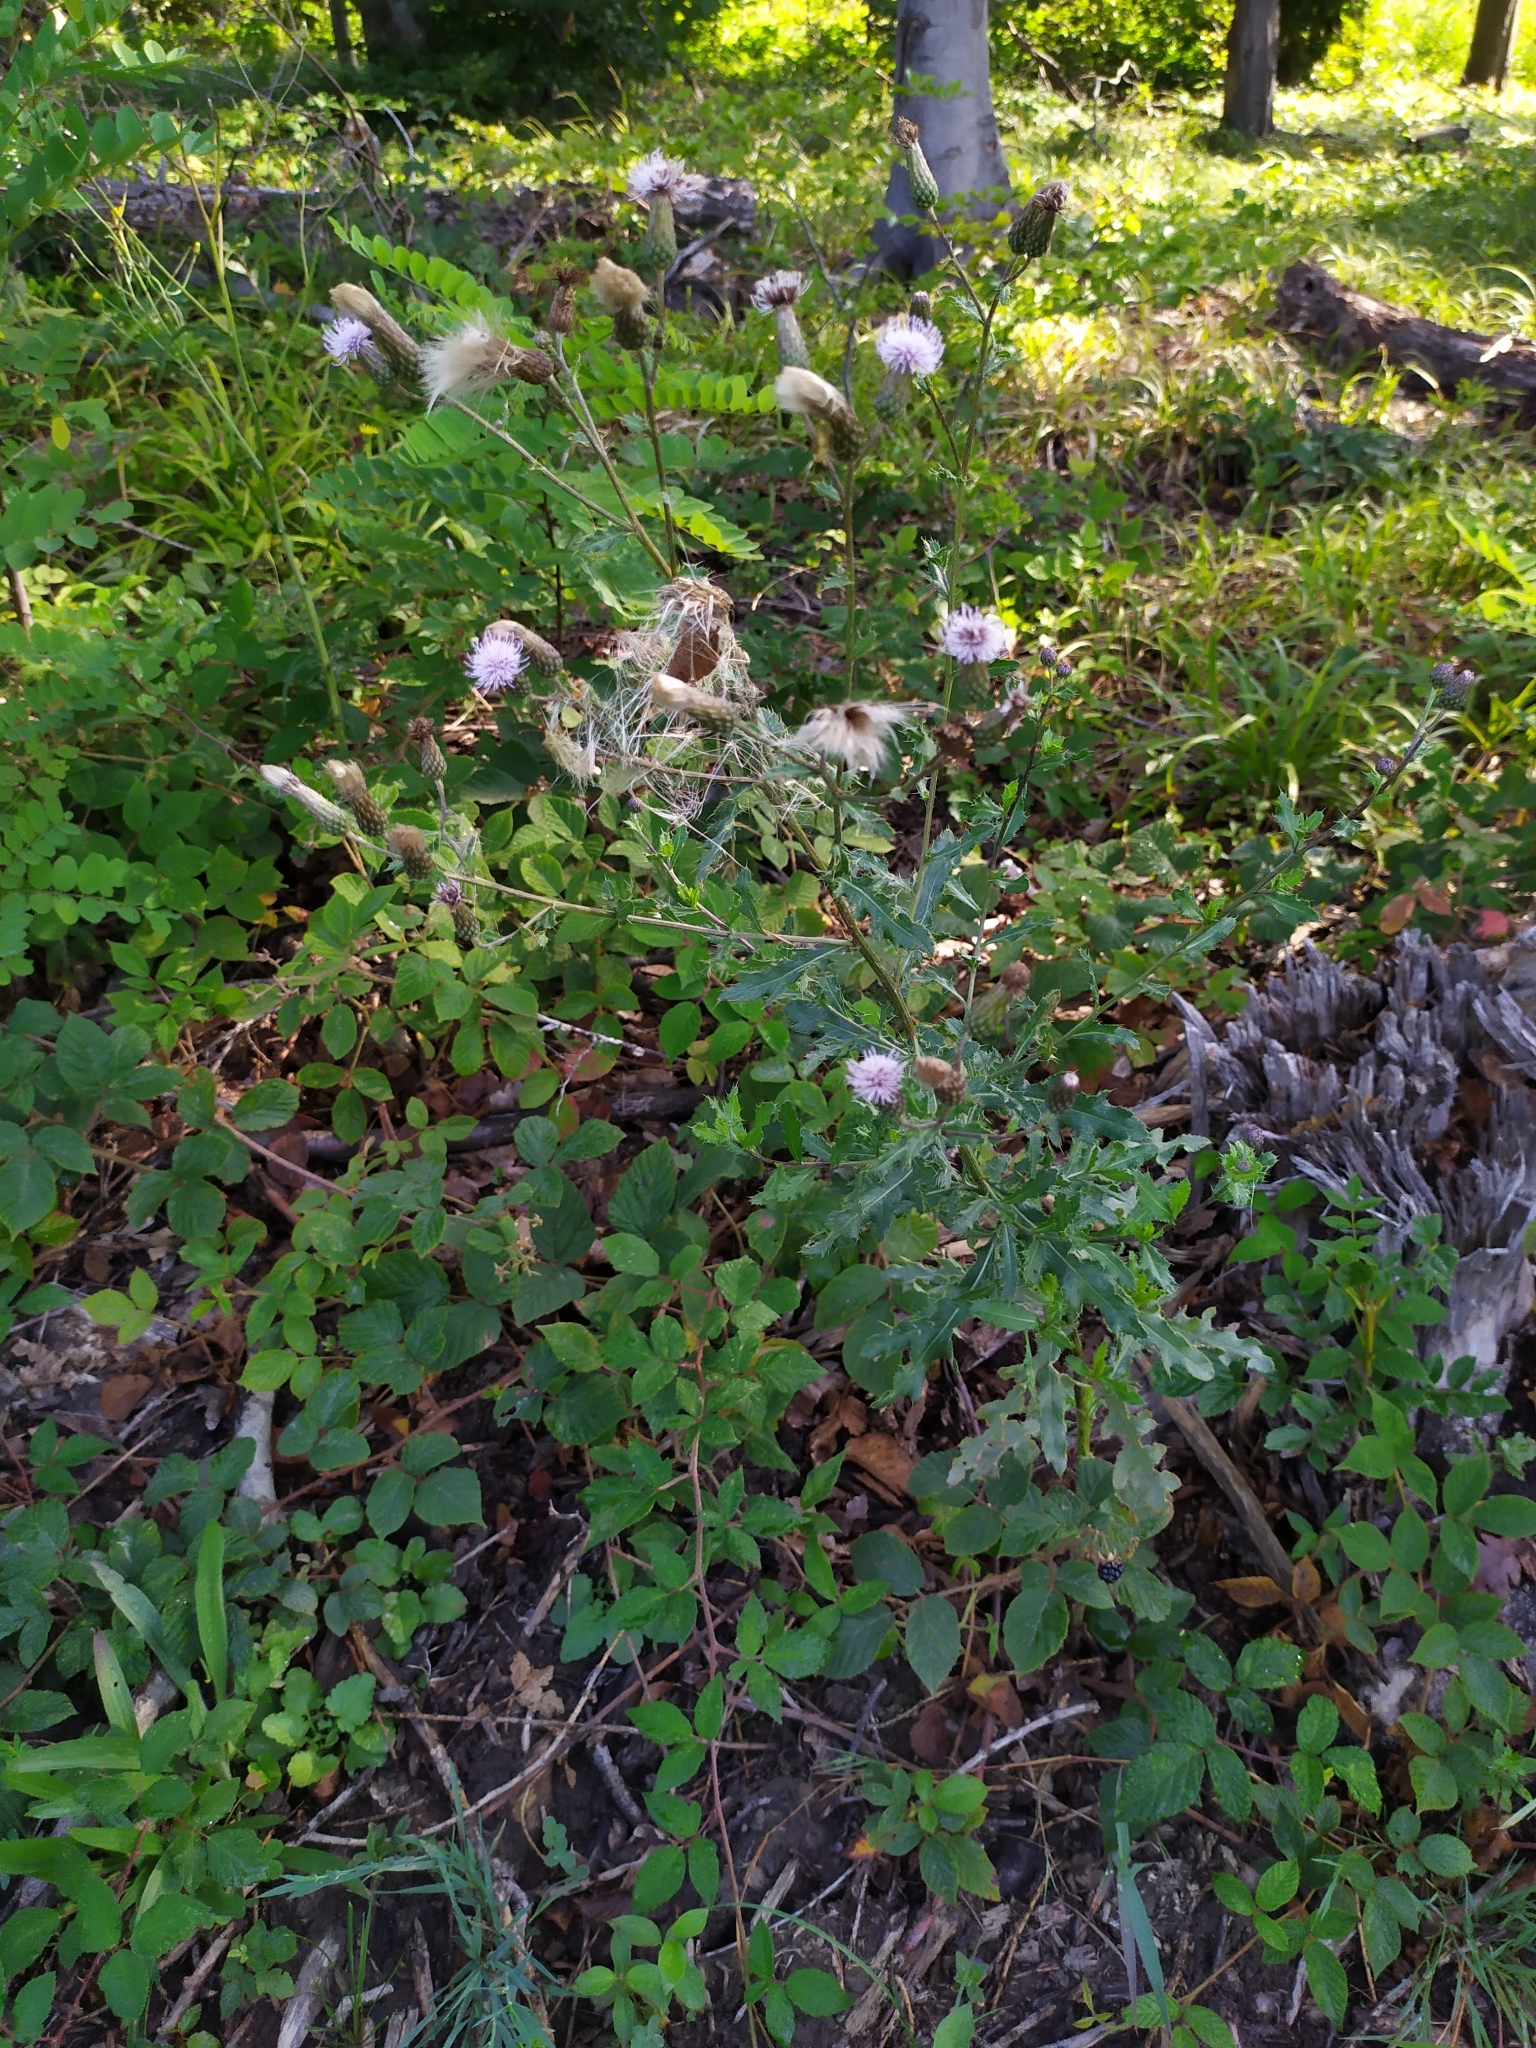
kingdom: Plantae
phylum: Tracheophyta
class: Magnoliopsida
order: Asterales
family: Asteraceae
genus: Cirsium
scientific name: Cirsium arvense
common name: Creeping thistle
